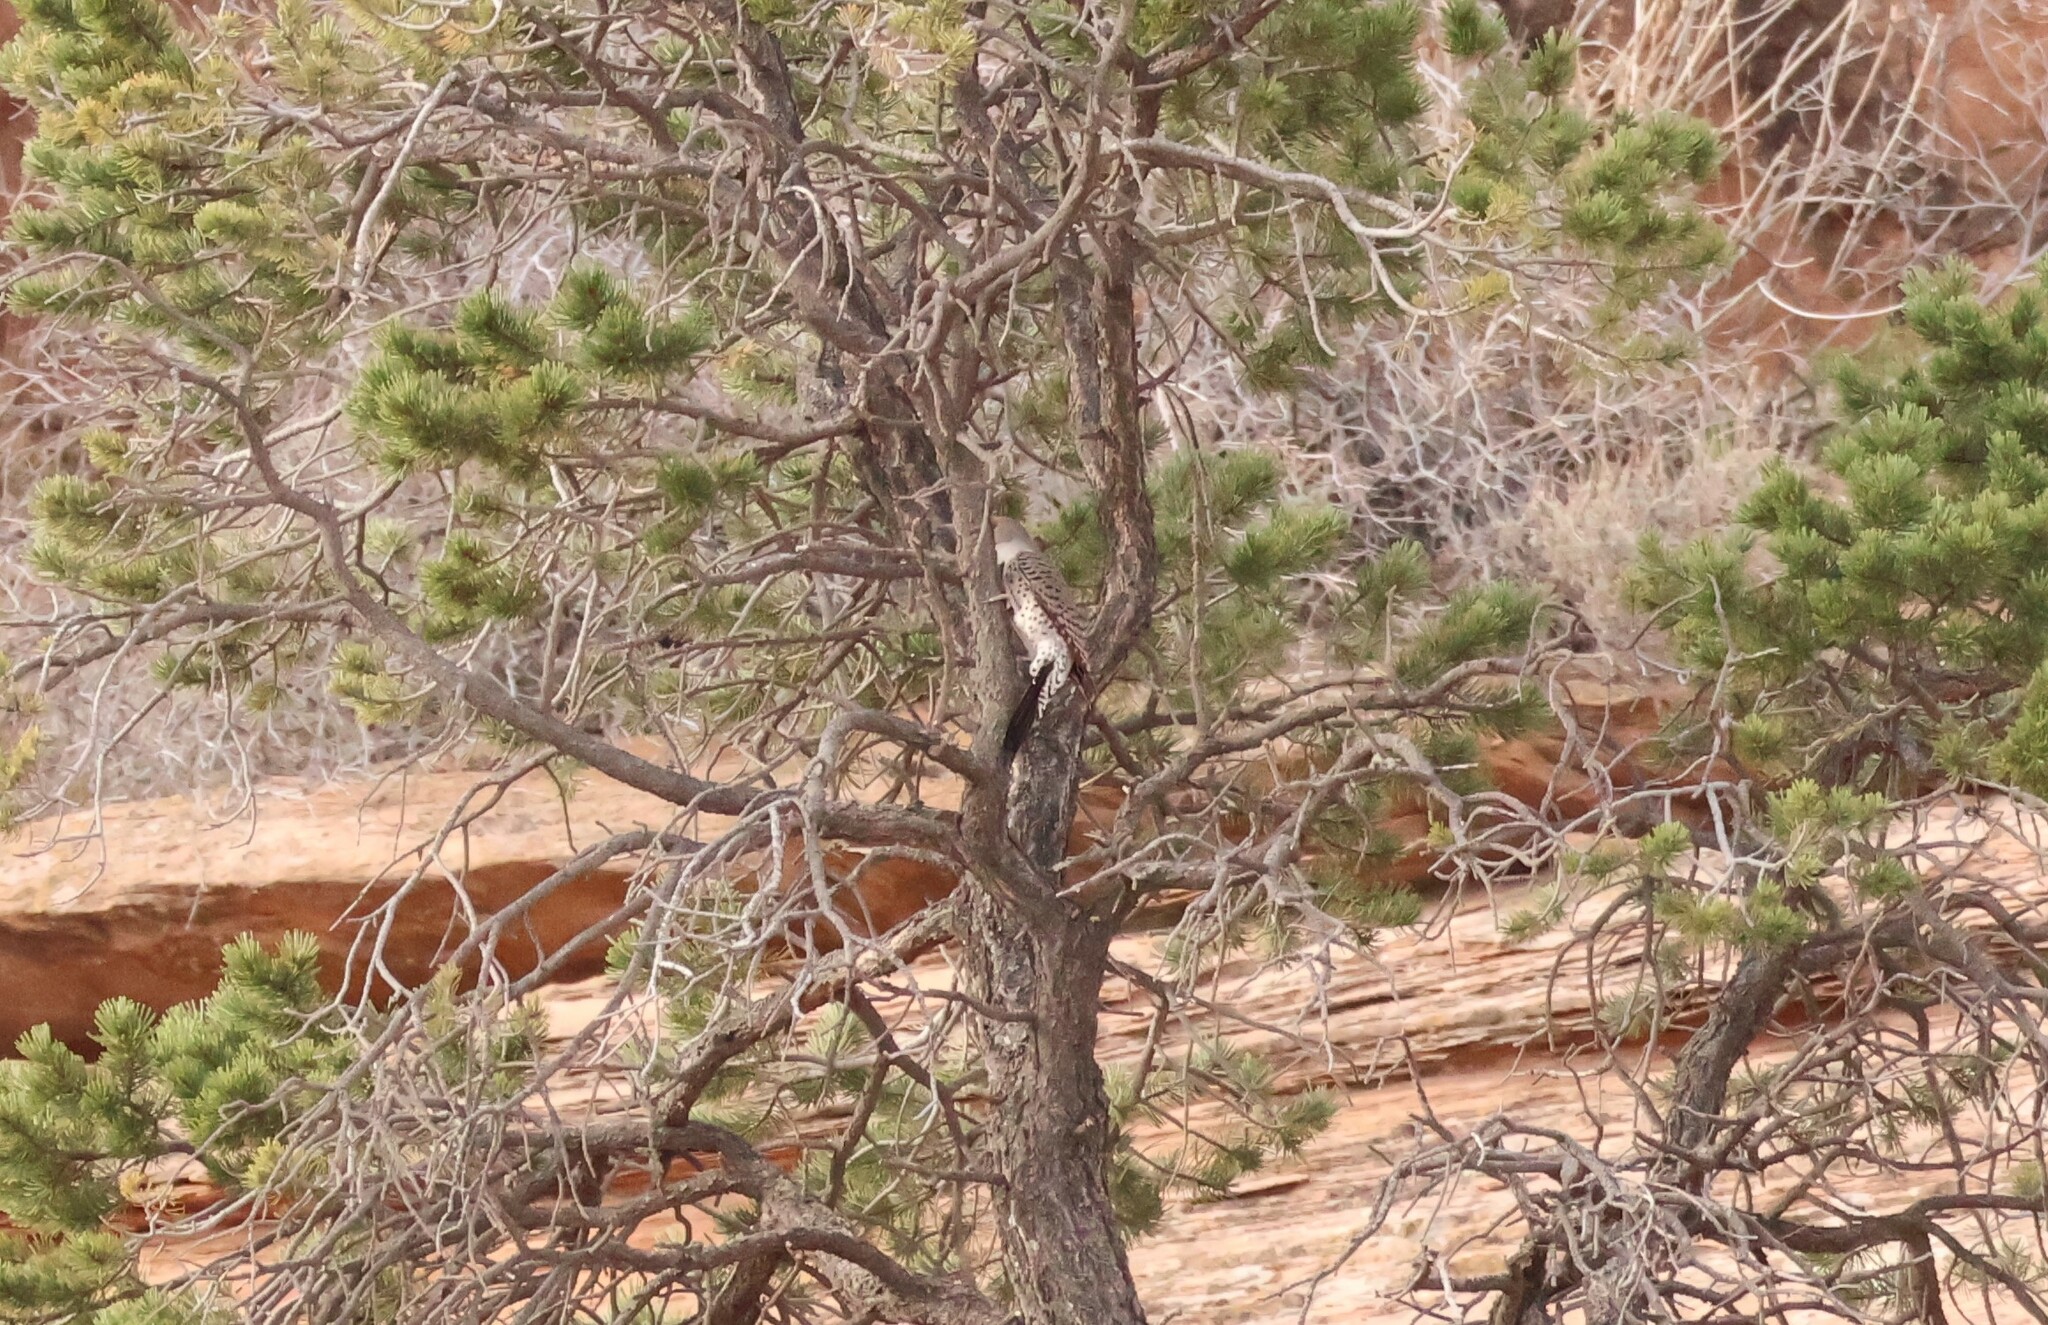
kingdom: Animalia
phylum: Chordata
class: Aves
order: Piciformes
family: Picidae
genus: Colaptes
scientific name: Colaptes auratus
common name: Northern flicker
